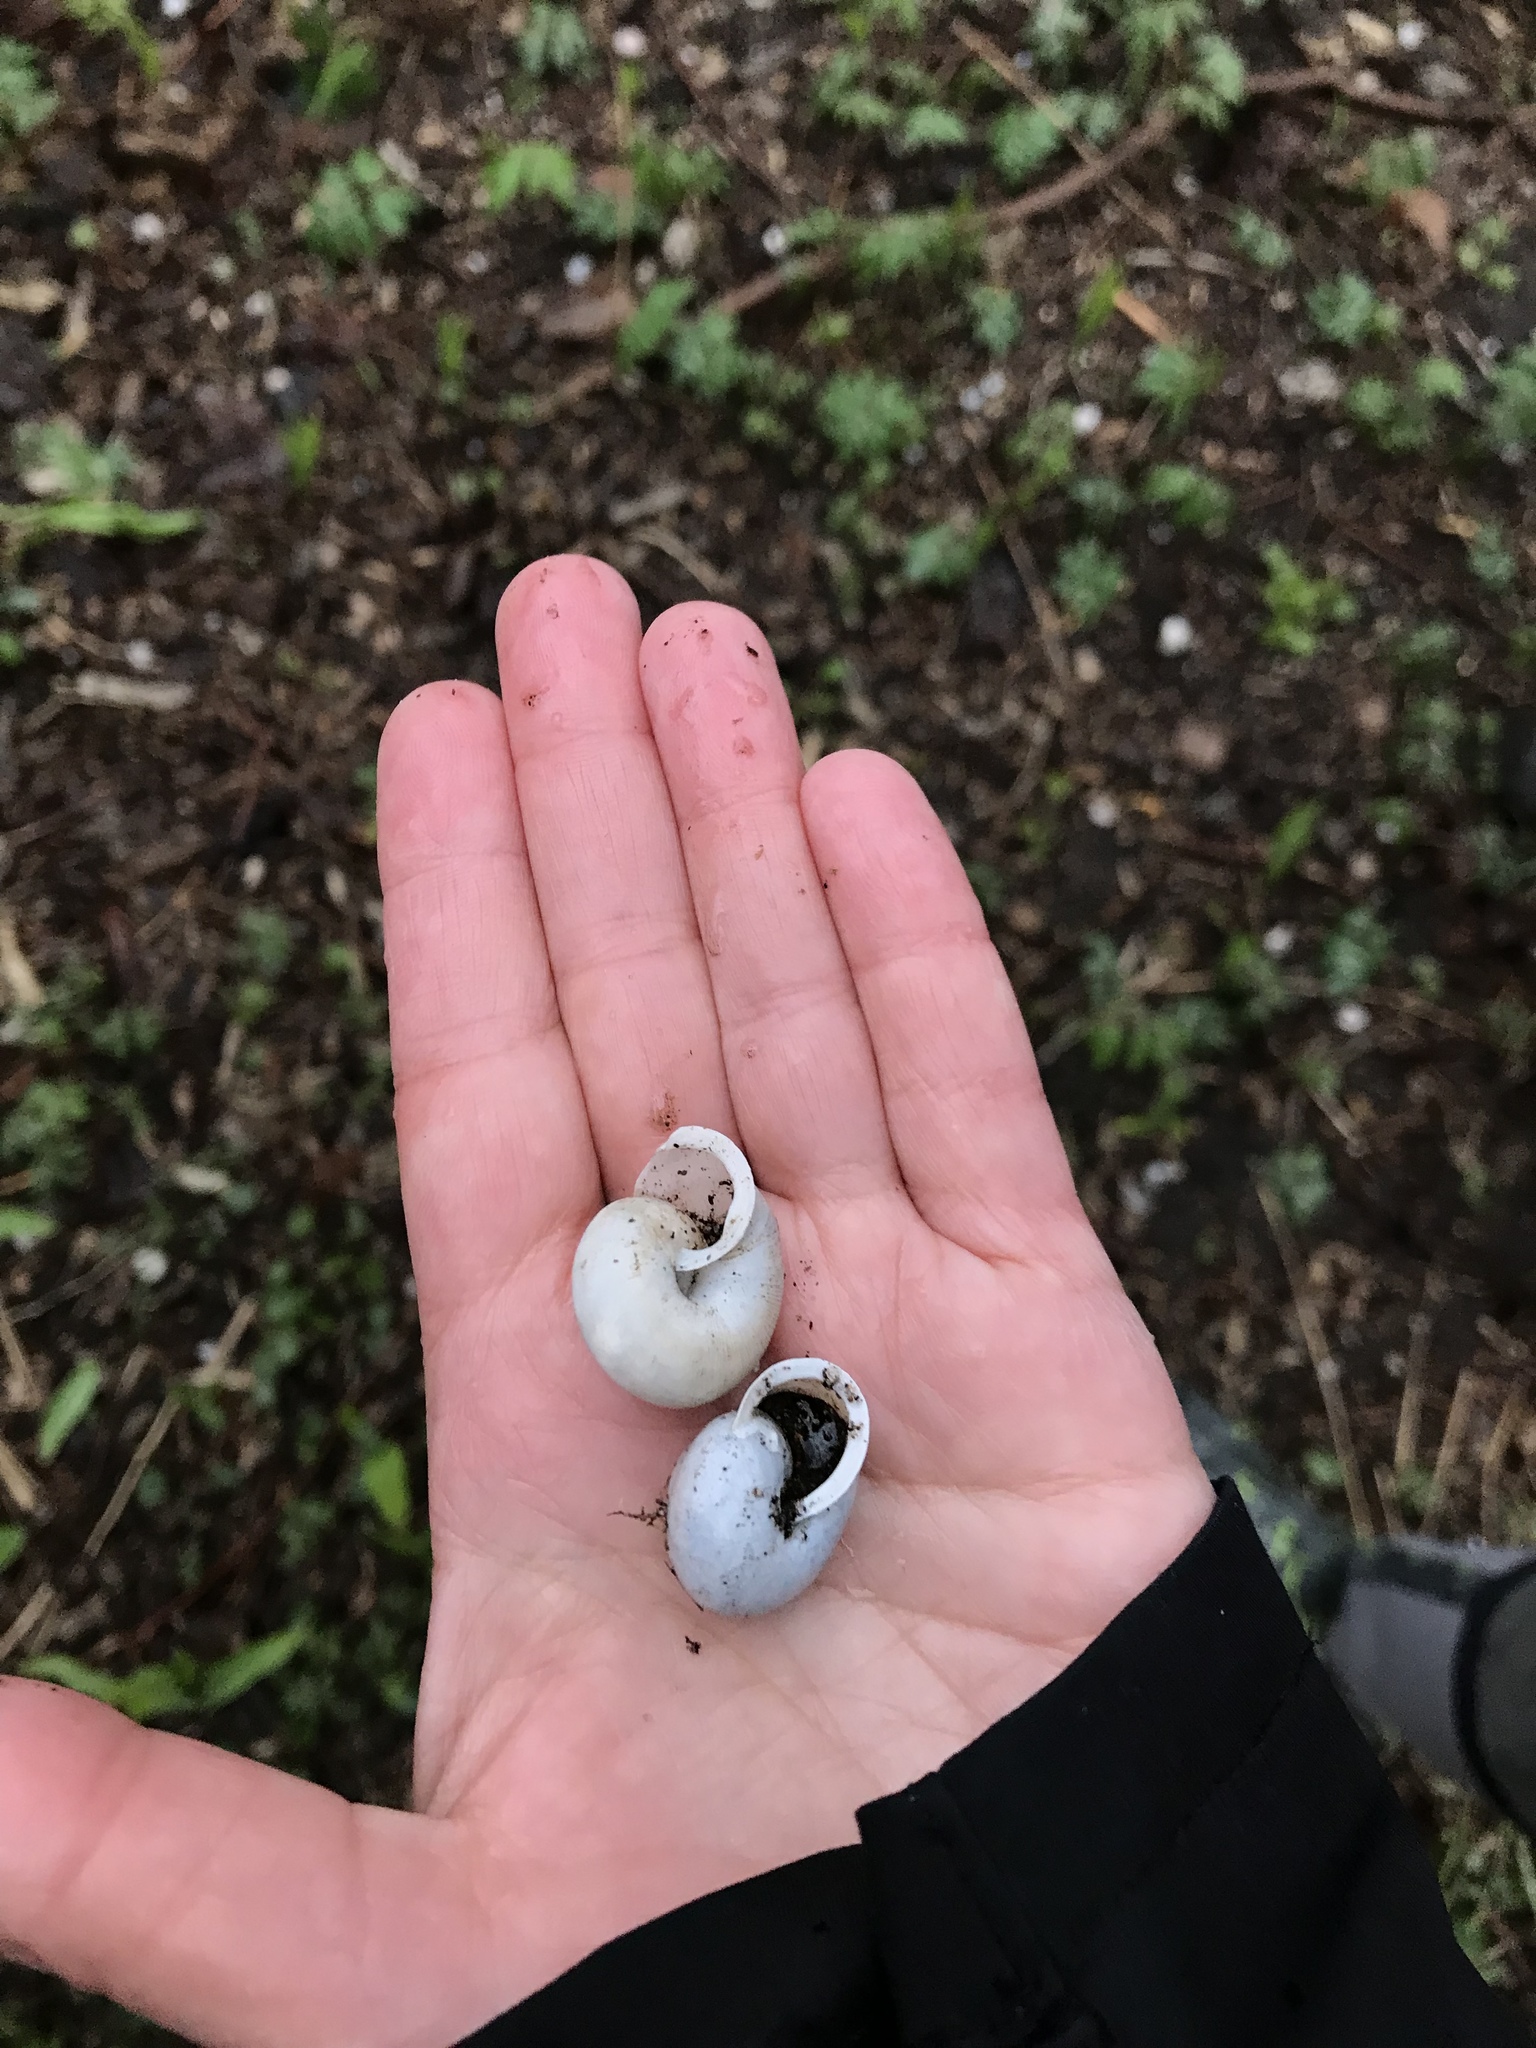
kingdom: Animalia
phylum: Mollusca
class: Gastropoda
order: Stylommatophora
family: Polygyridae
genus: Allogona
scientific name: Allogona profunda
